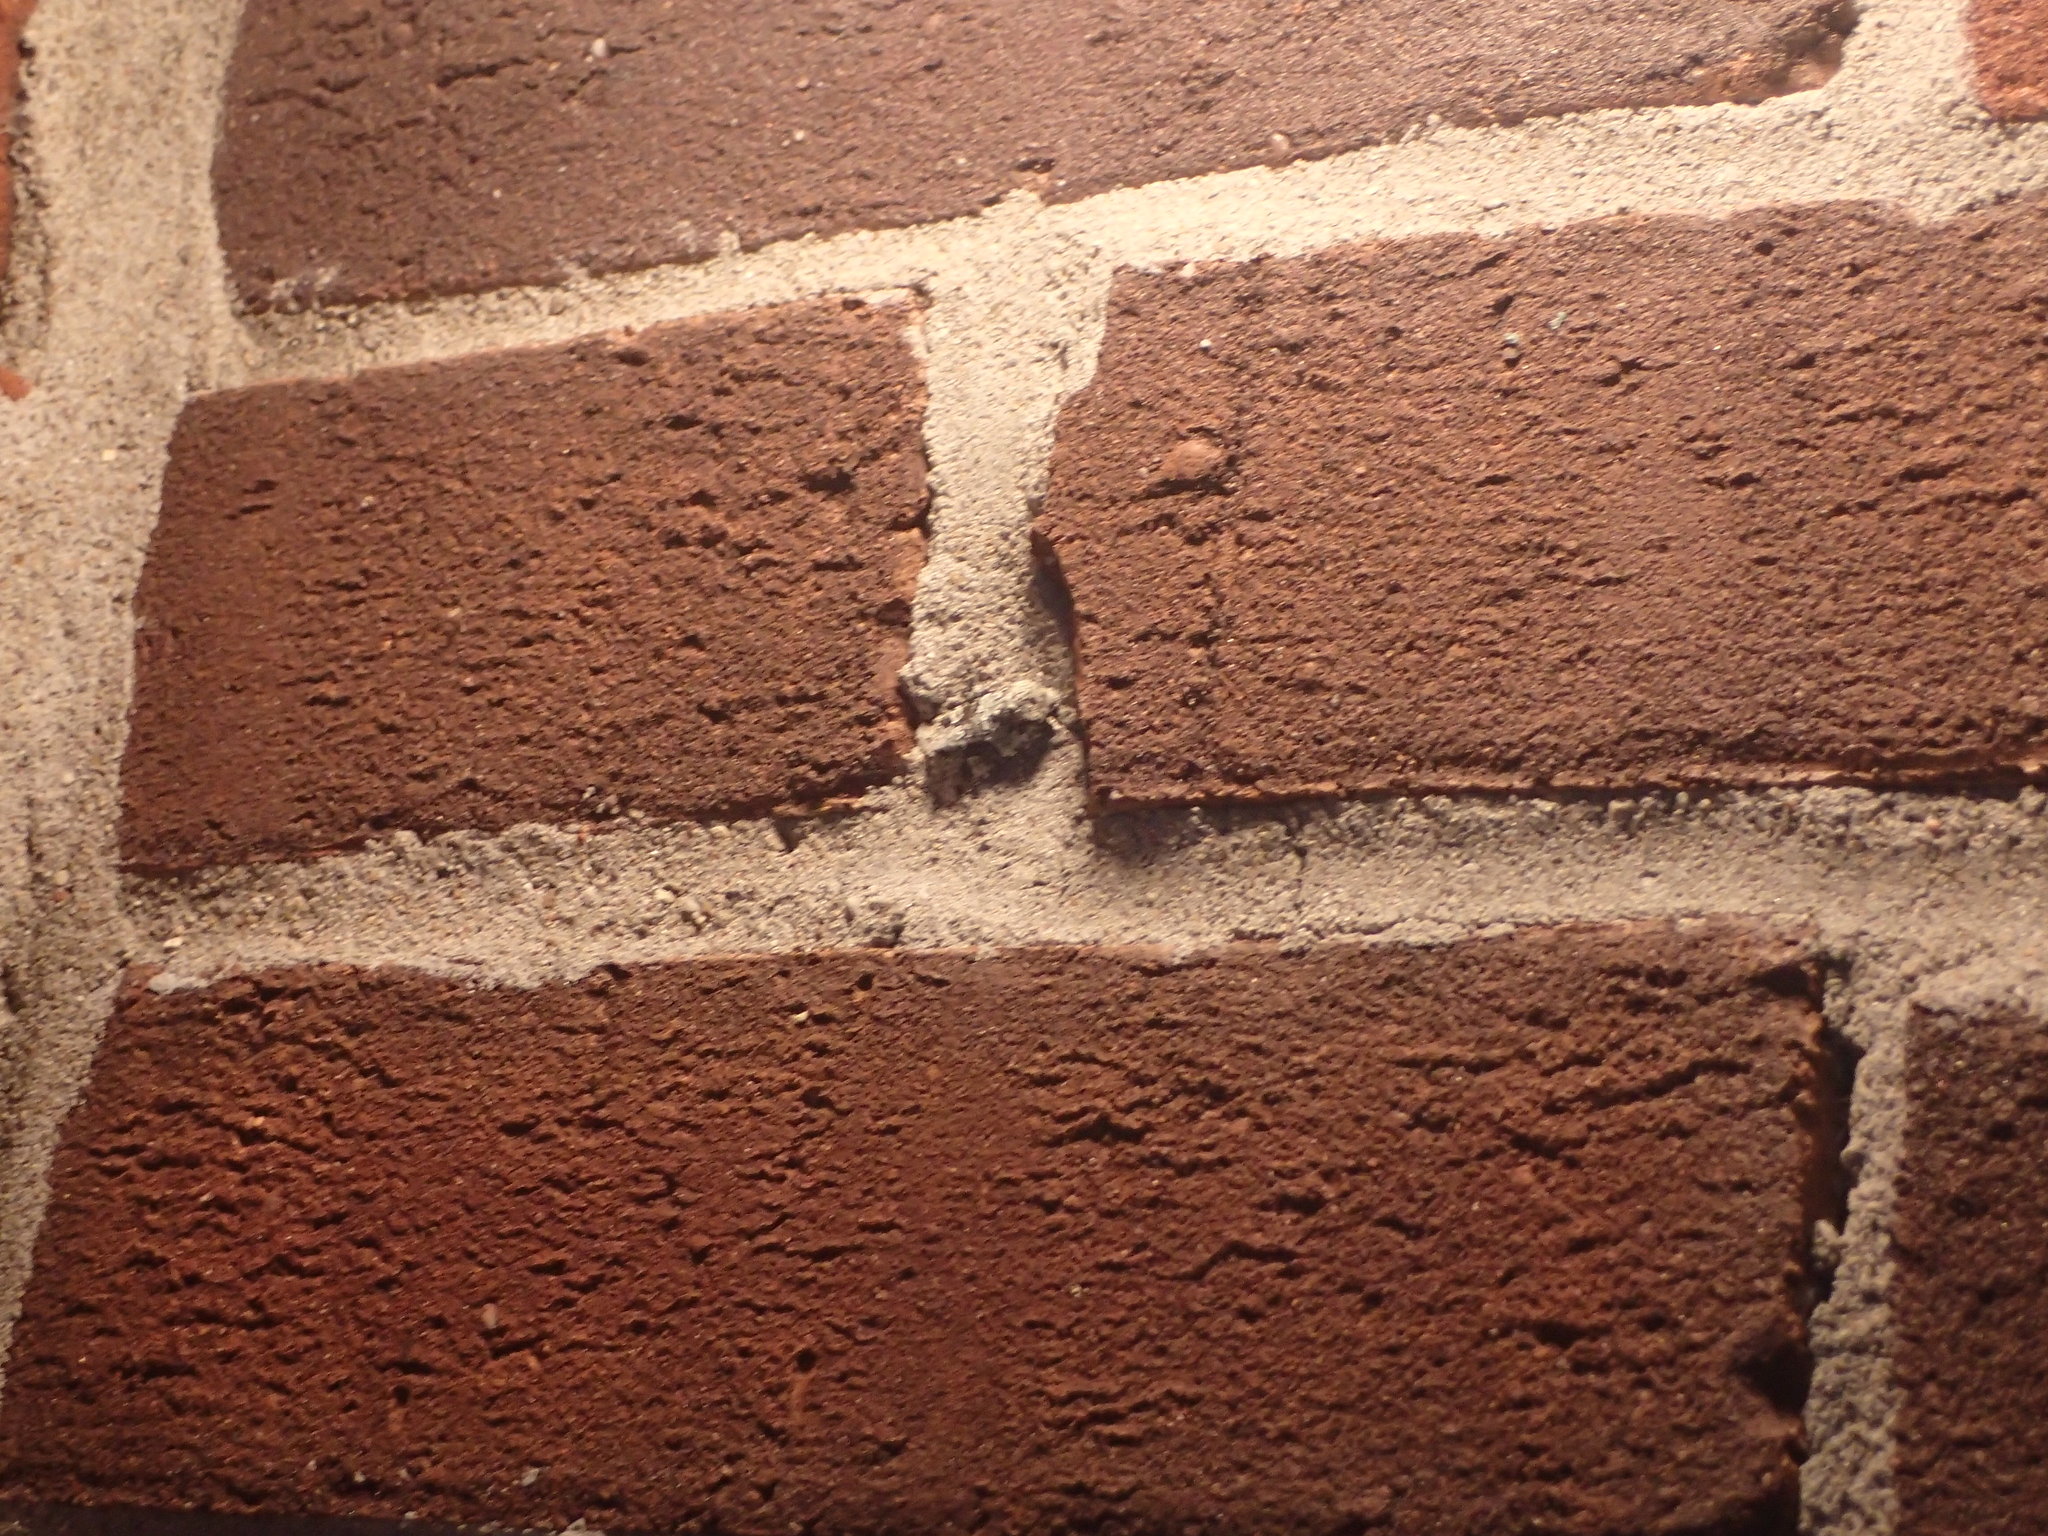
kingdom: Animalia
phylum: Arthropoda
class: Insecta
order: Lepidoptera
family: Noctuidae
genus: Lacinipolia
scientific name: Lacinipolia laudabilis
